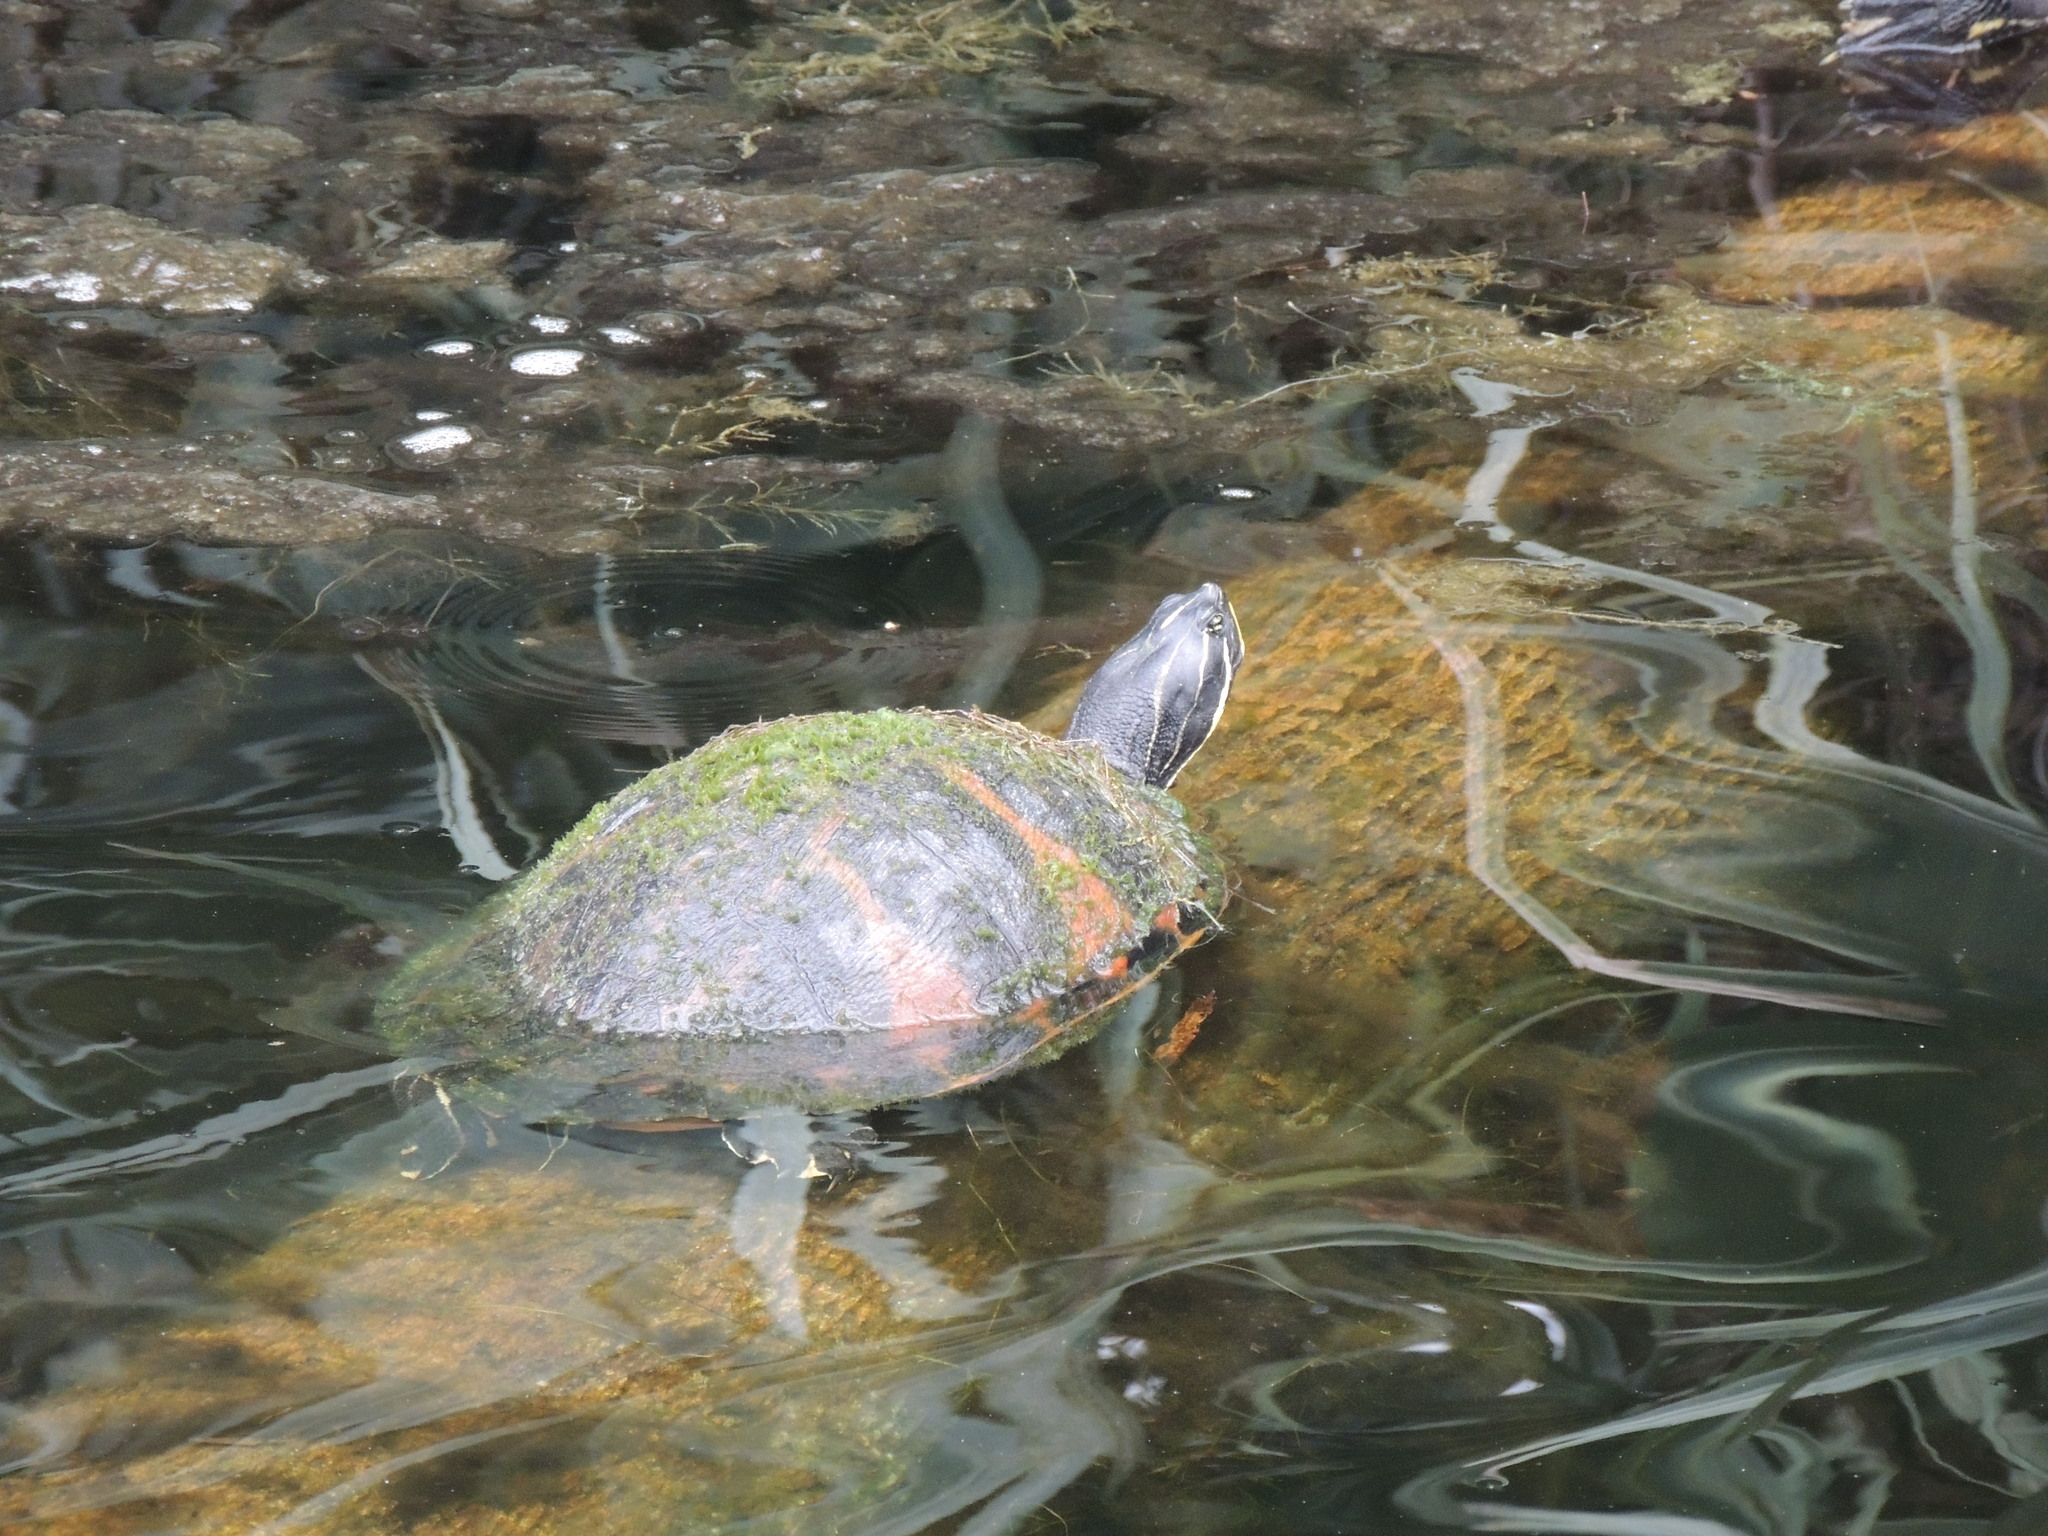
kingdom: Animalia
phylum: Chordata
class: Testudines
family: Emydidae
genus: Pseudemys
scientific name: Pseudemys nelsoni
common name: Florida red-bellied turtle
